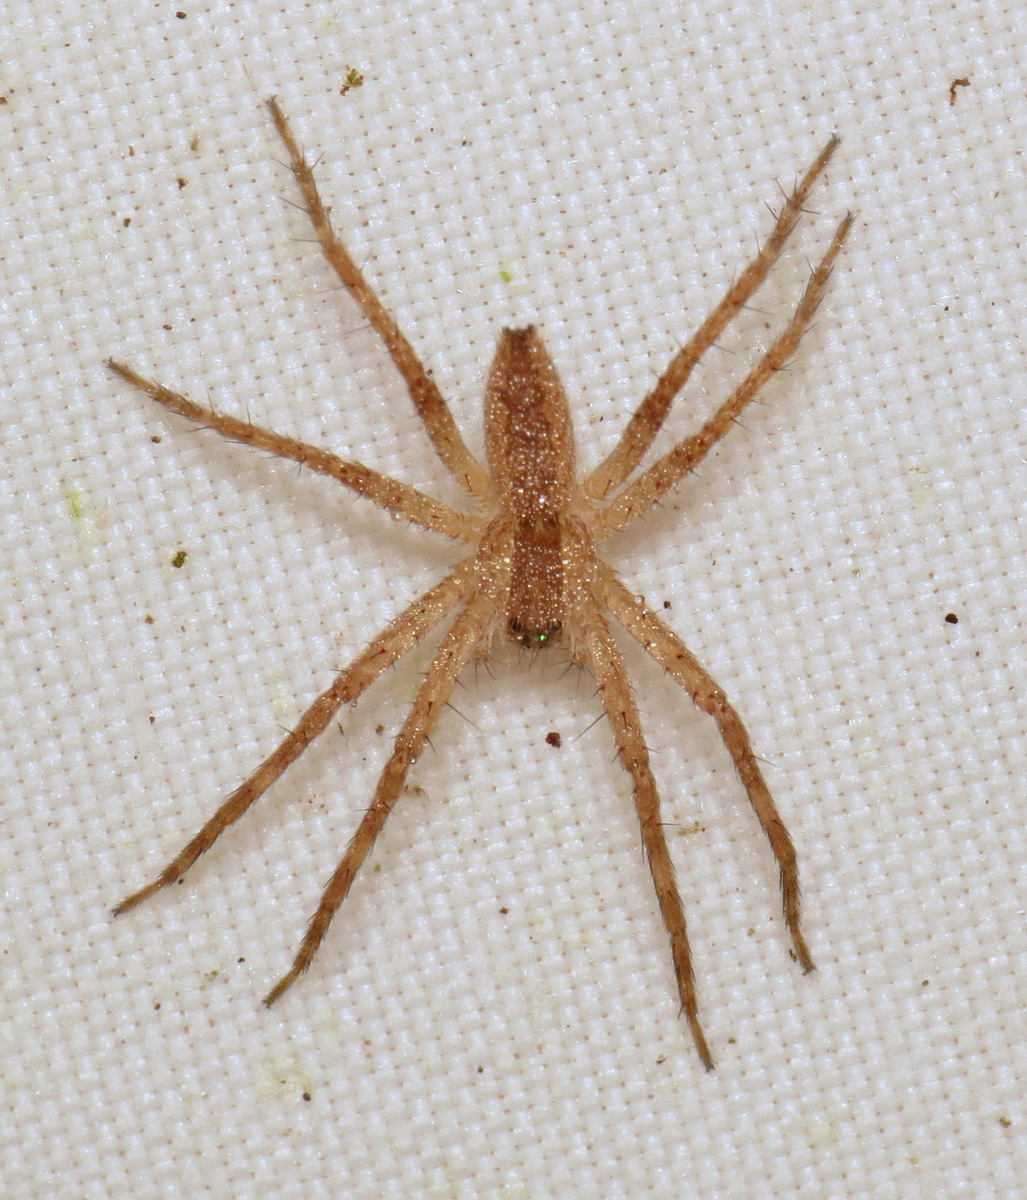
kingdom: Animalia
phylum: Arthropoda
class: Arachnida
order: Araneae
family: Pisauridae
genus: Pisaurina
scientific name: Pisaurina mira
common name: American nursery web spider
